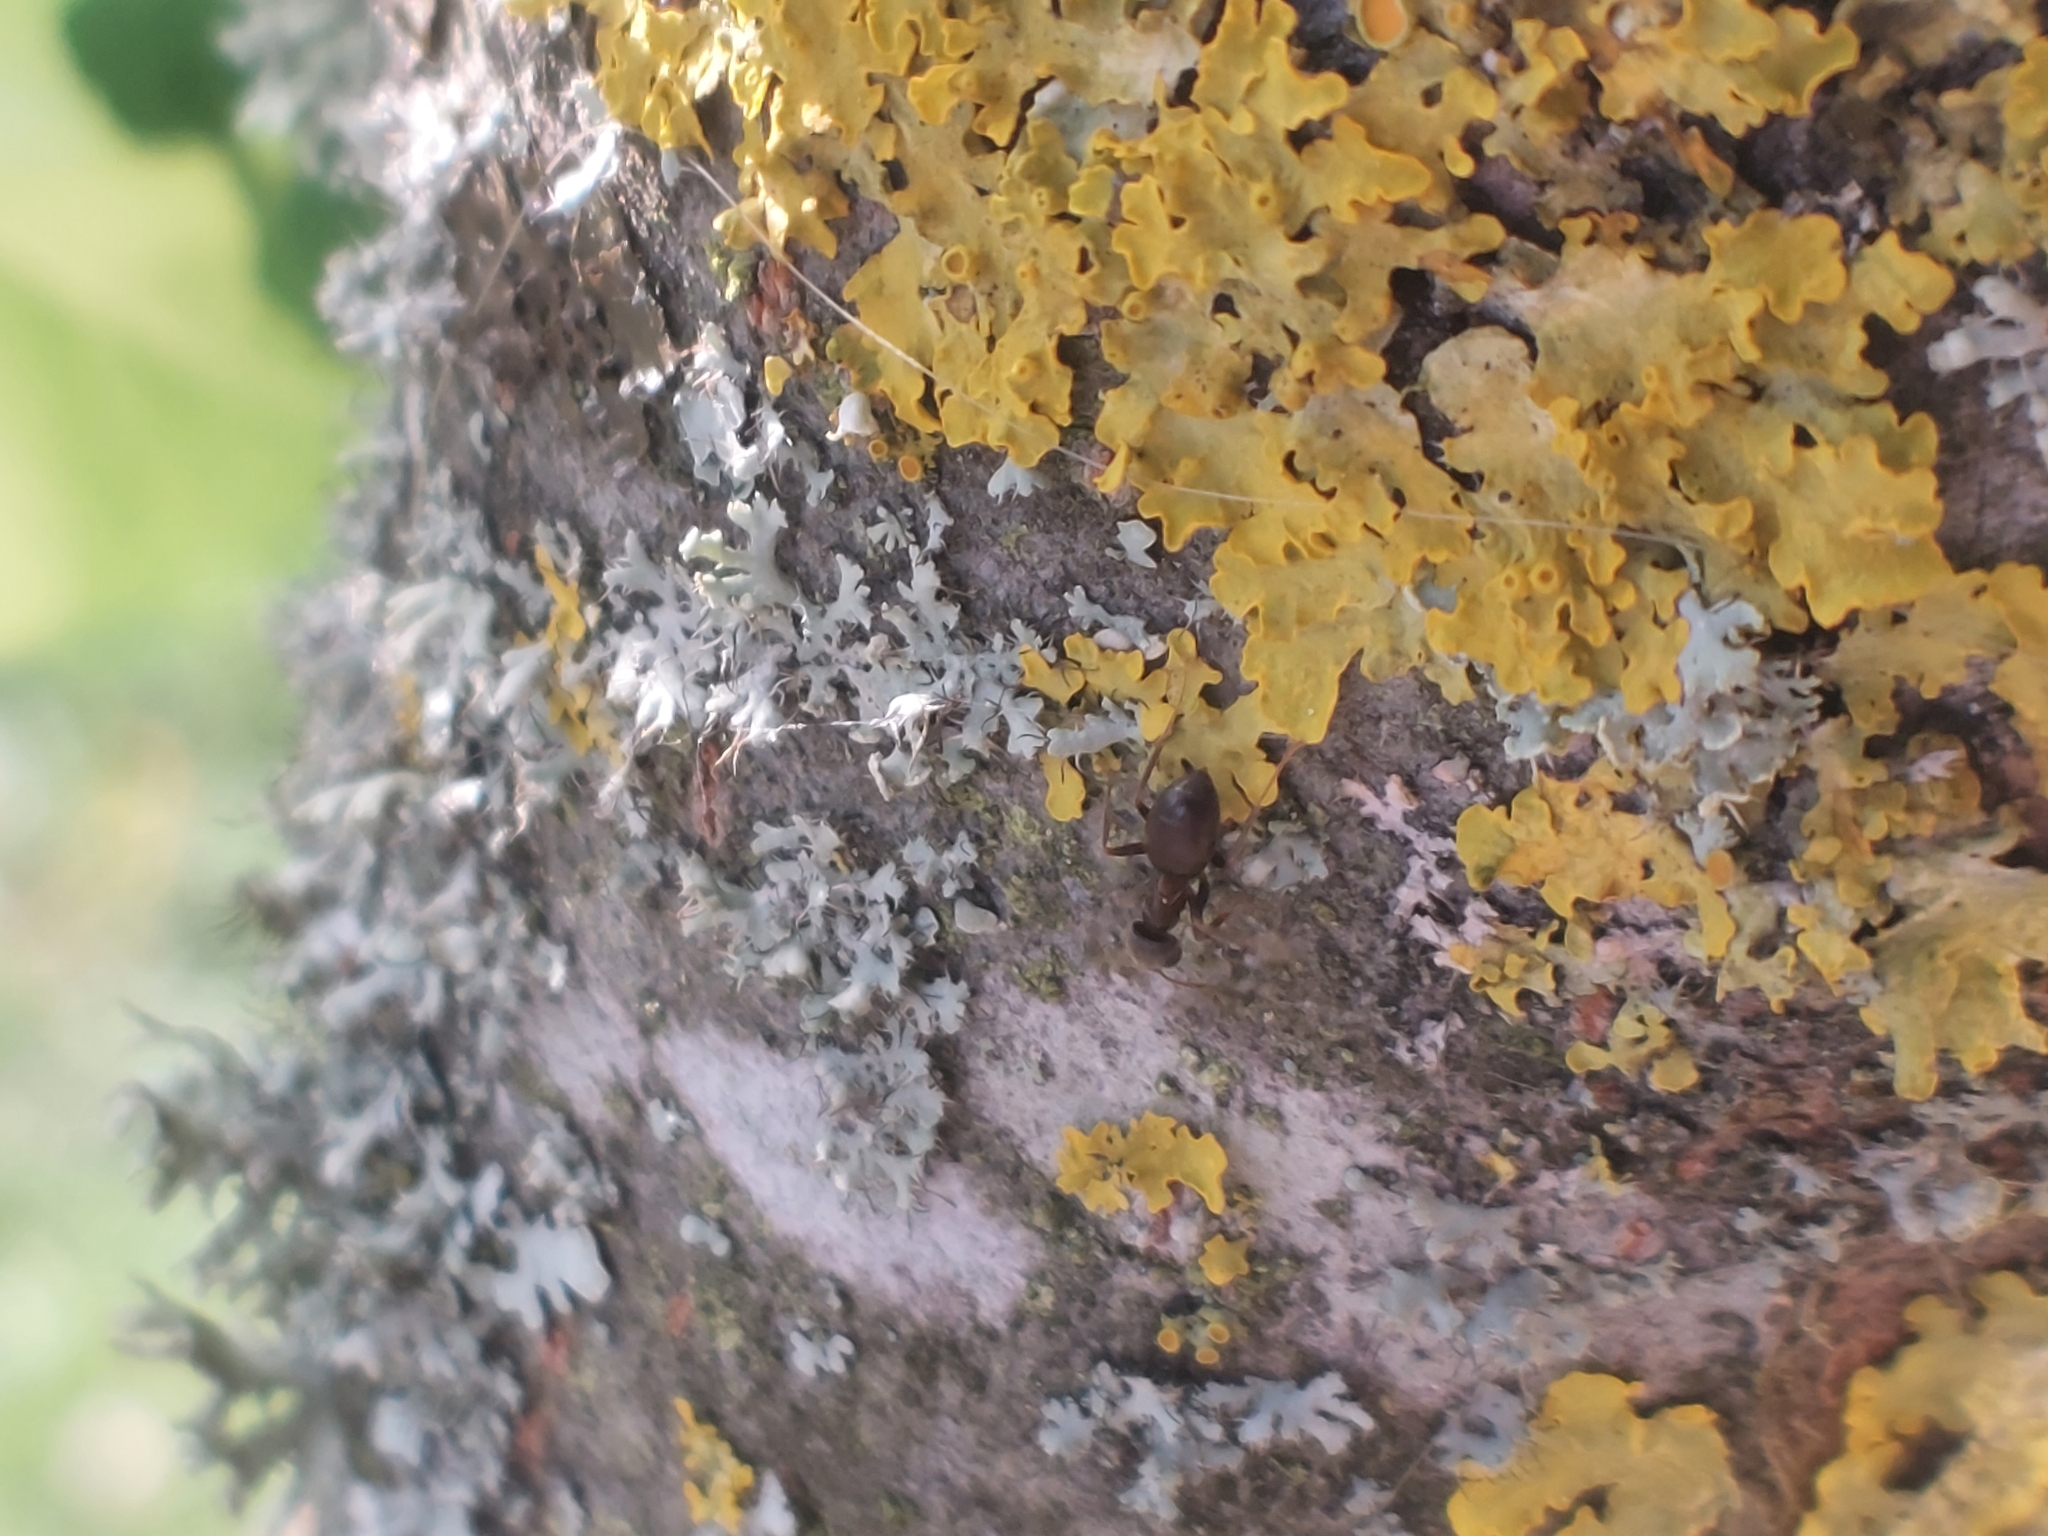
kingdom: Fungi
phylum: Ascomycota
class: Lecanoromycetes
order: Teloschistales
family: Teloschistaceae
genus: Xanthoria
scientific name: Xanthoria parietina
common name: Common orange lichen
